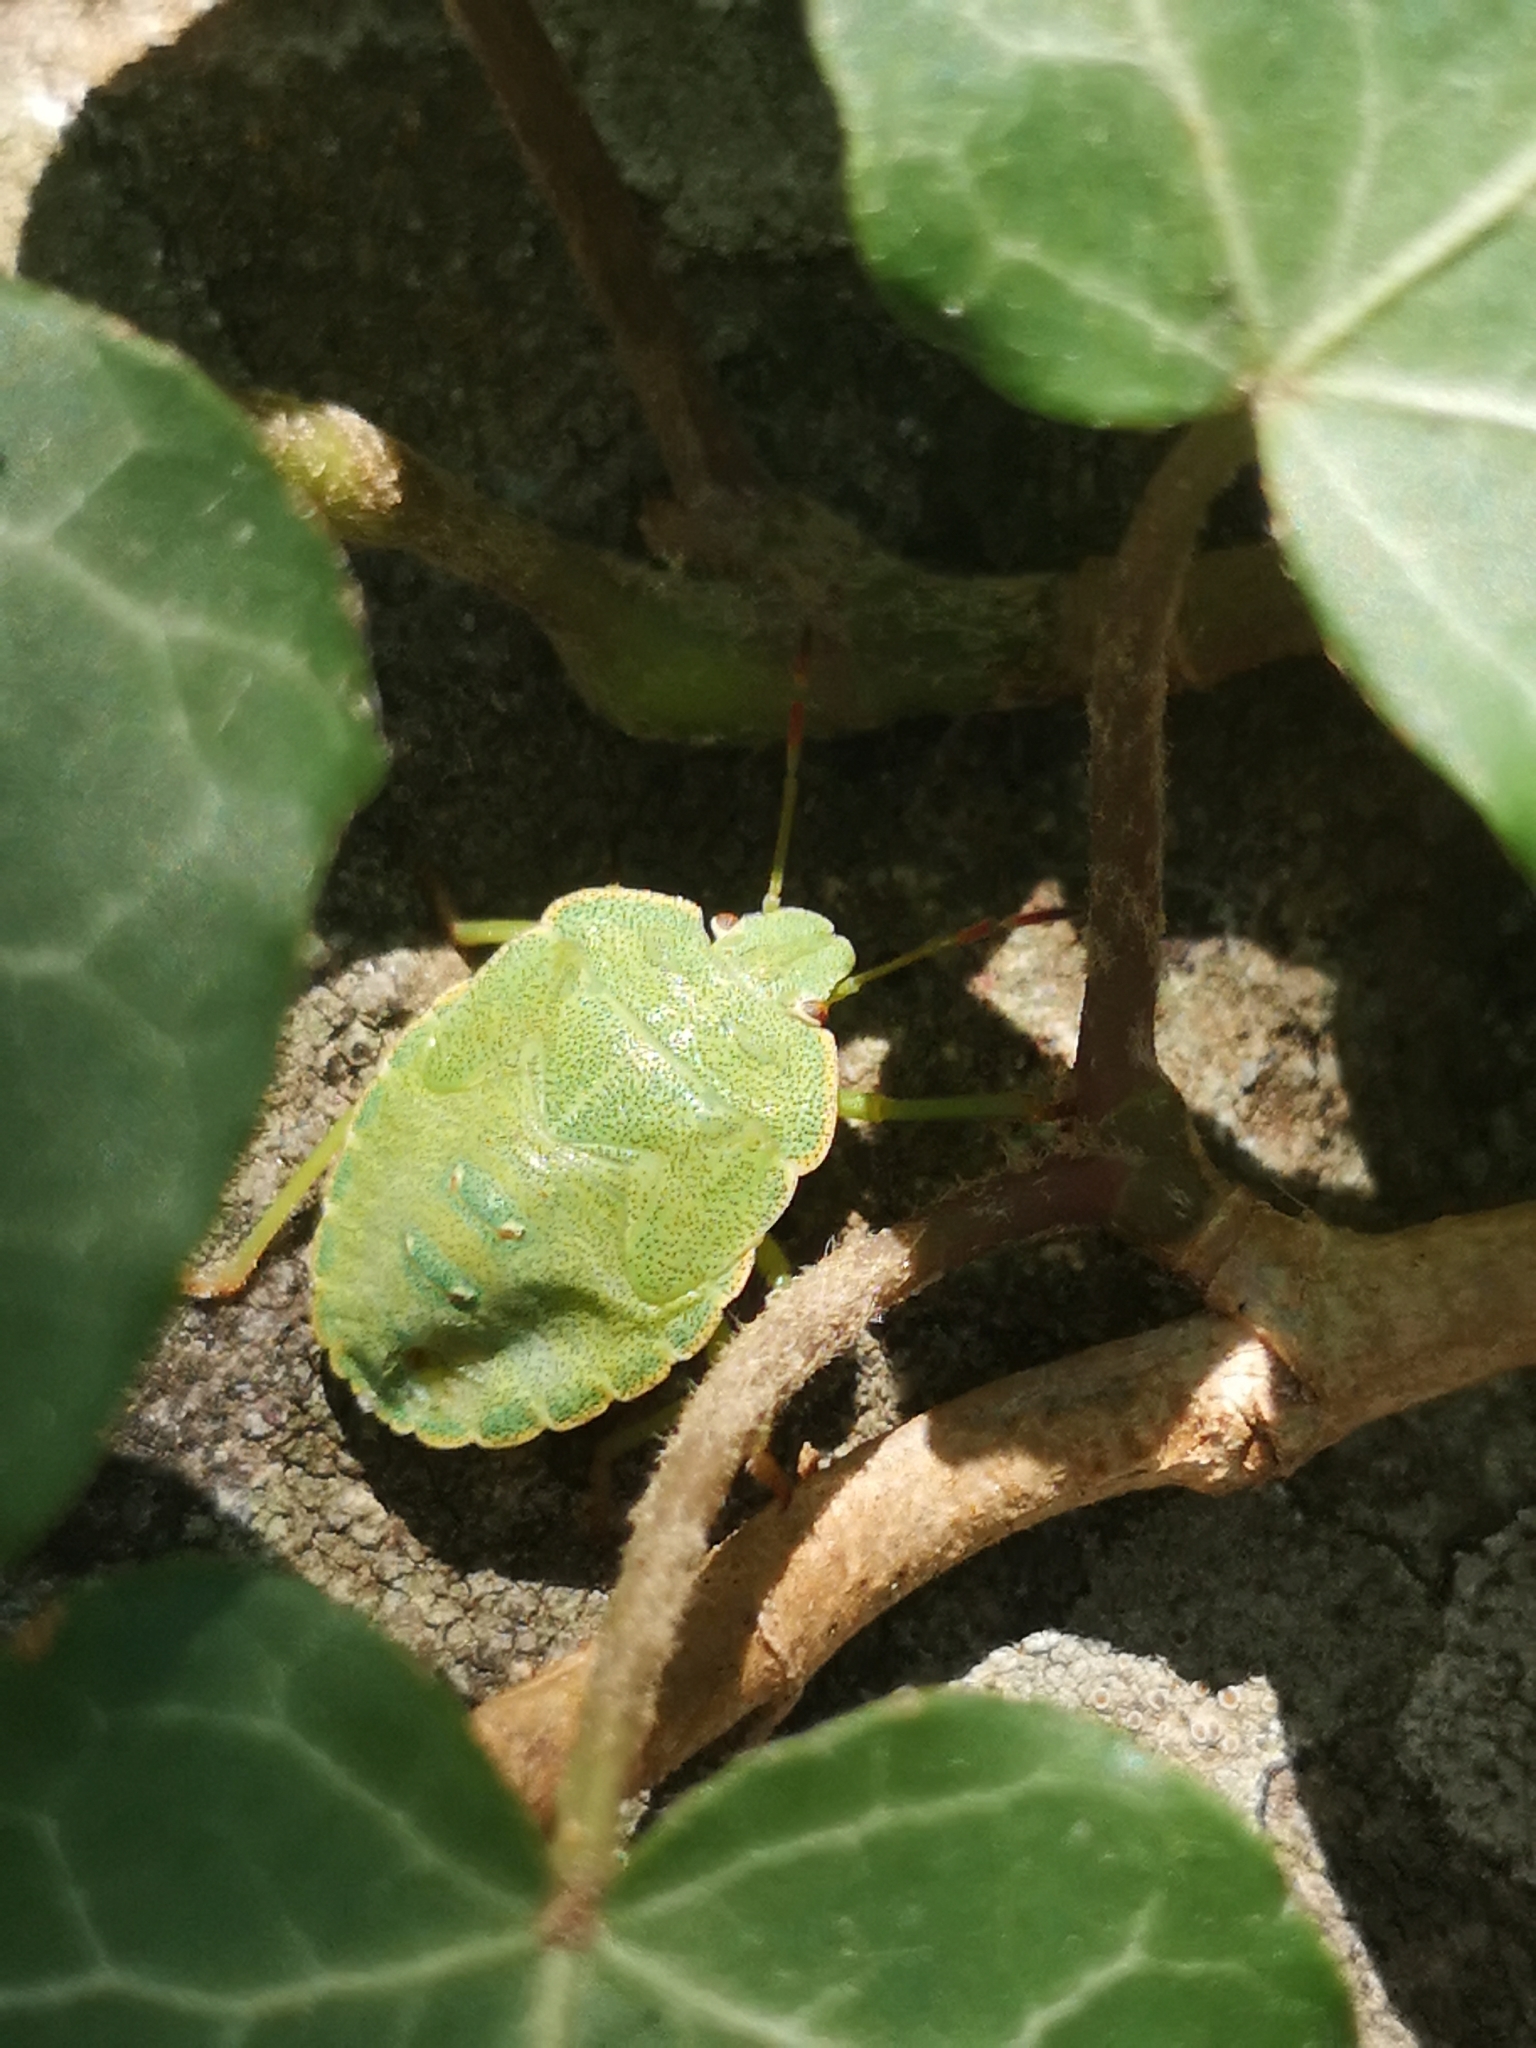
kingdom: Animalia
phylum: Arthropoda
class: Insecta
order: Hemiptera
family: Pentatomidae
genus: Palomena
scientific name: Palomena prasina
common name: Green shieldbug
